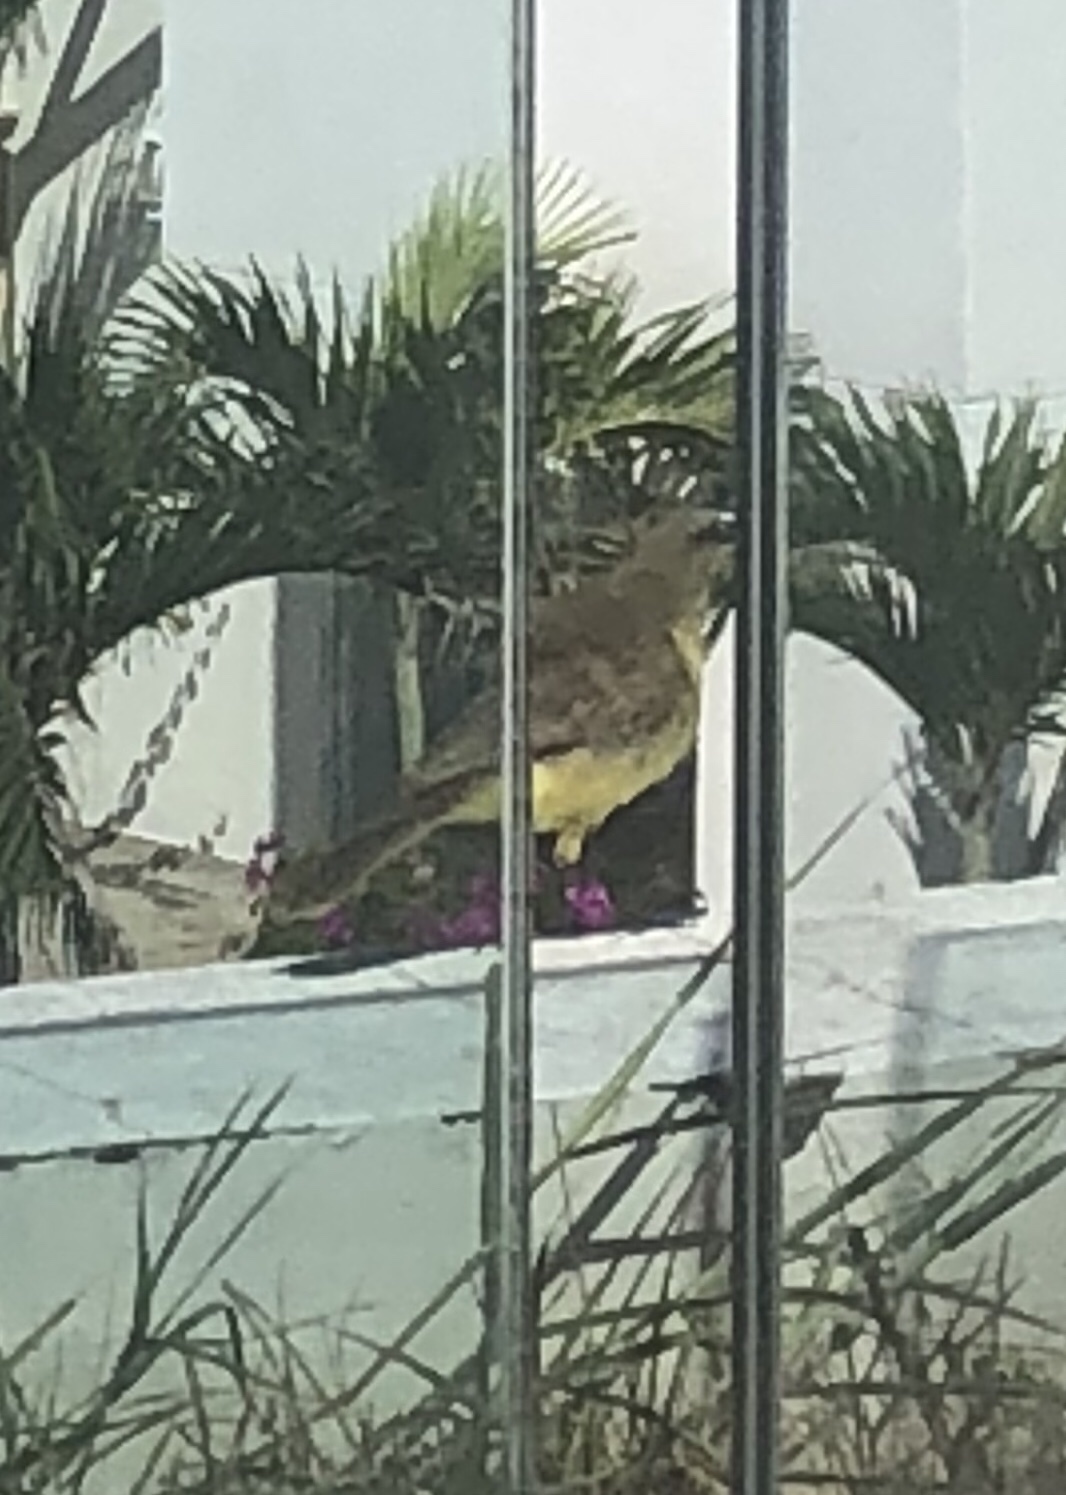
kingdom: Animalia
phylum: Chordata
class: Aves
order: Passeriformes
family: Tyrannidae
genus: Machetornis
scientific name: Machetornis rixosa
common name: Cattle tyrant
